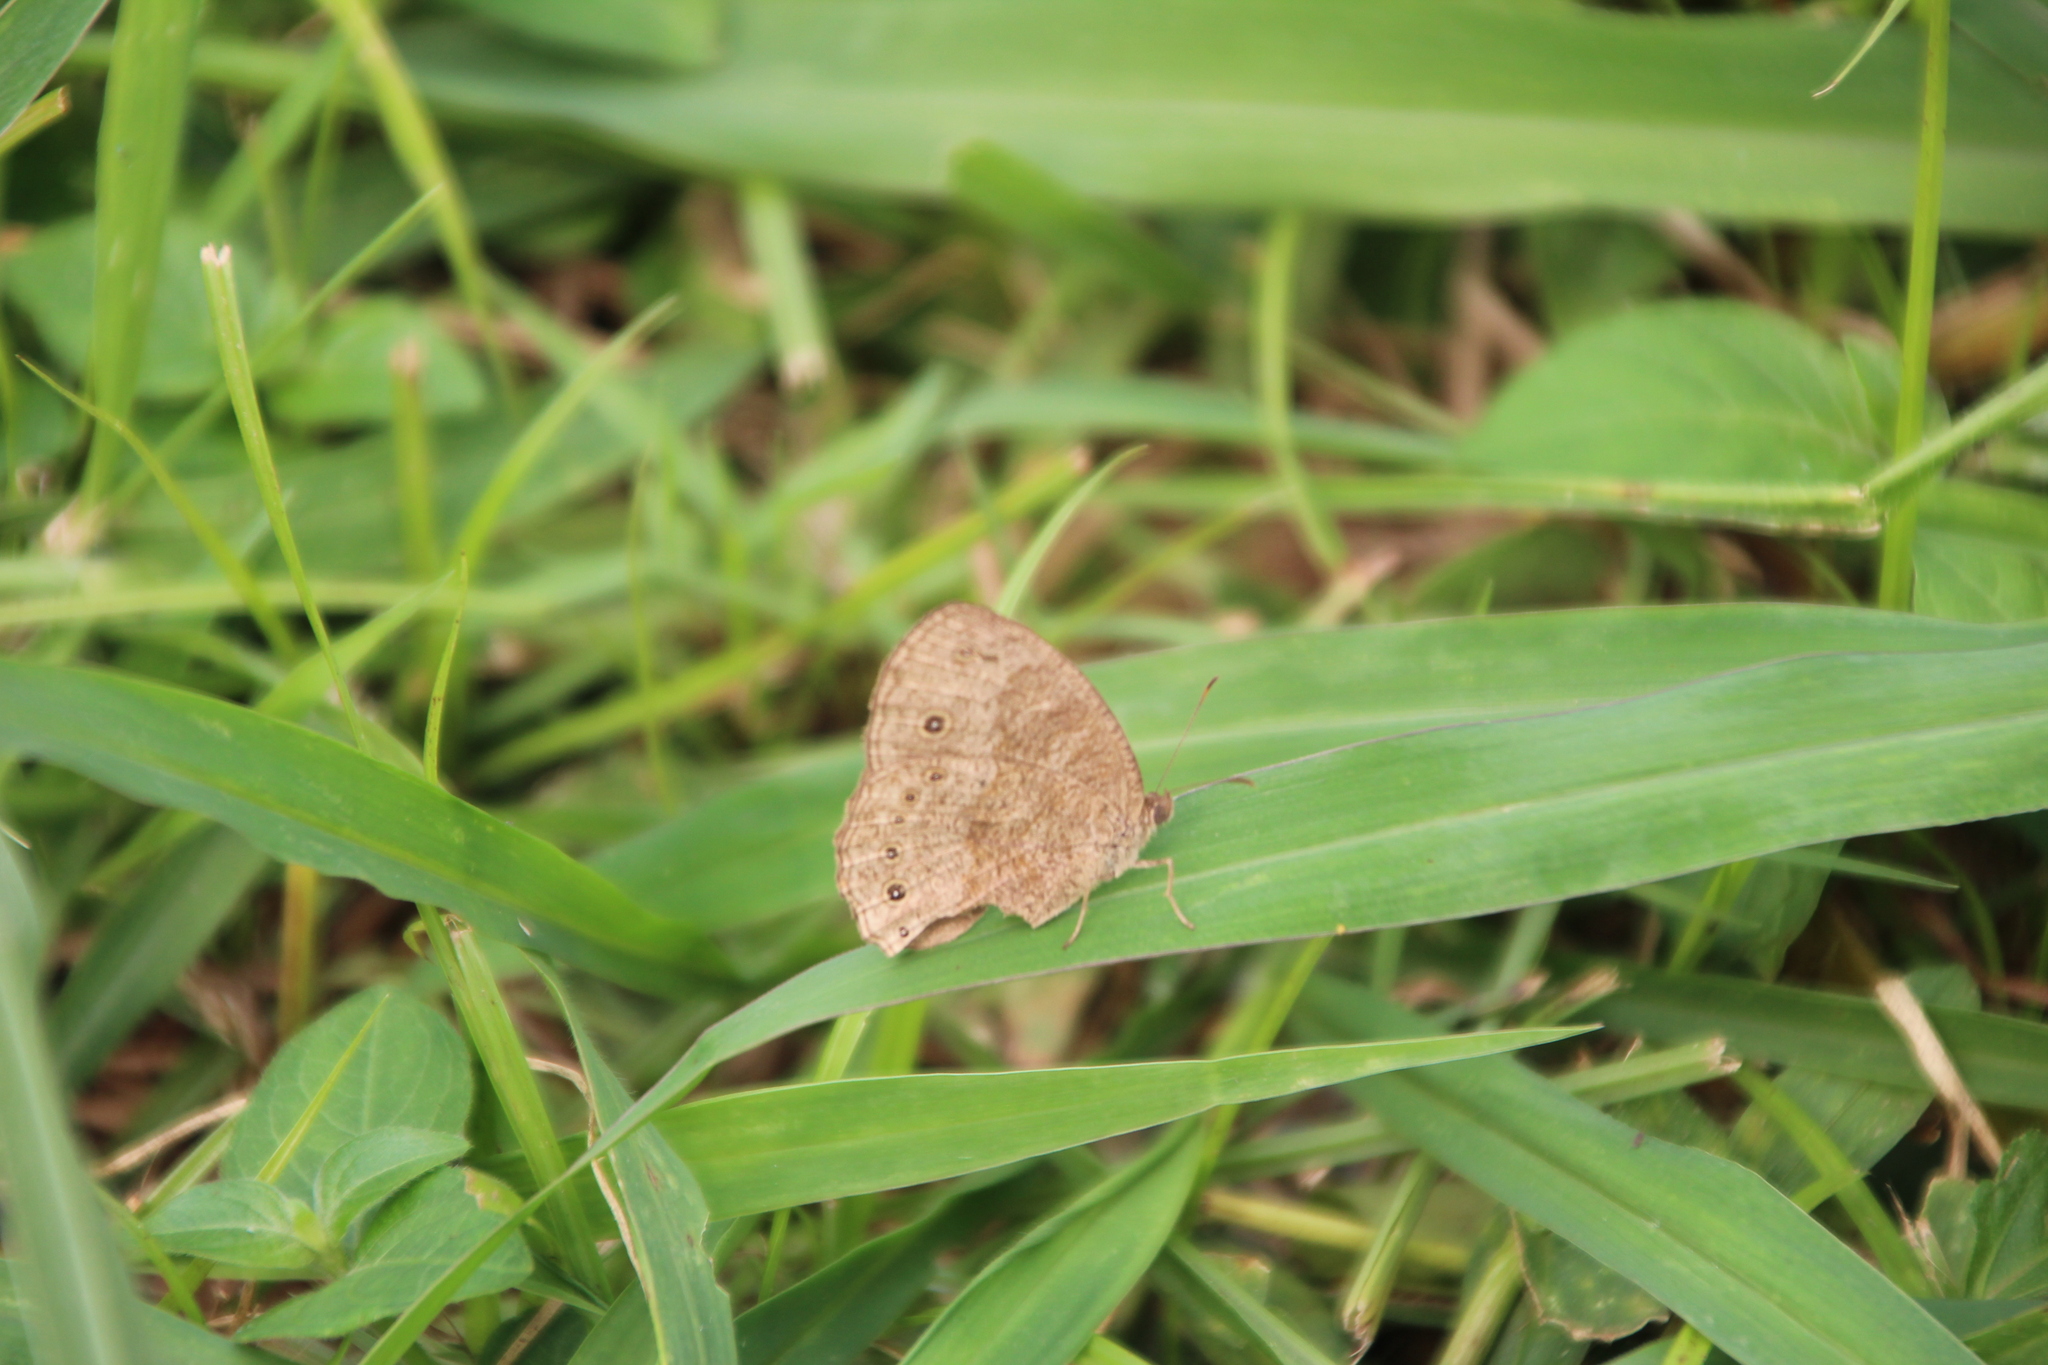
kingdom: Animalia
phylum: Arthropoda
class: Insecta
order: Lepidoptera
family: Nymphalidae
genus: Bicyclus
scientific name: Bicyclus jefferyi
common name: Jeffery's bush-brown
